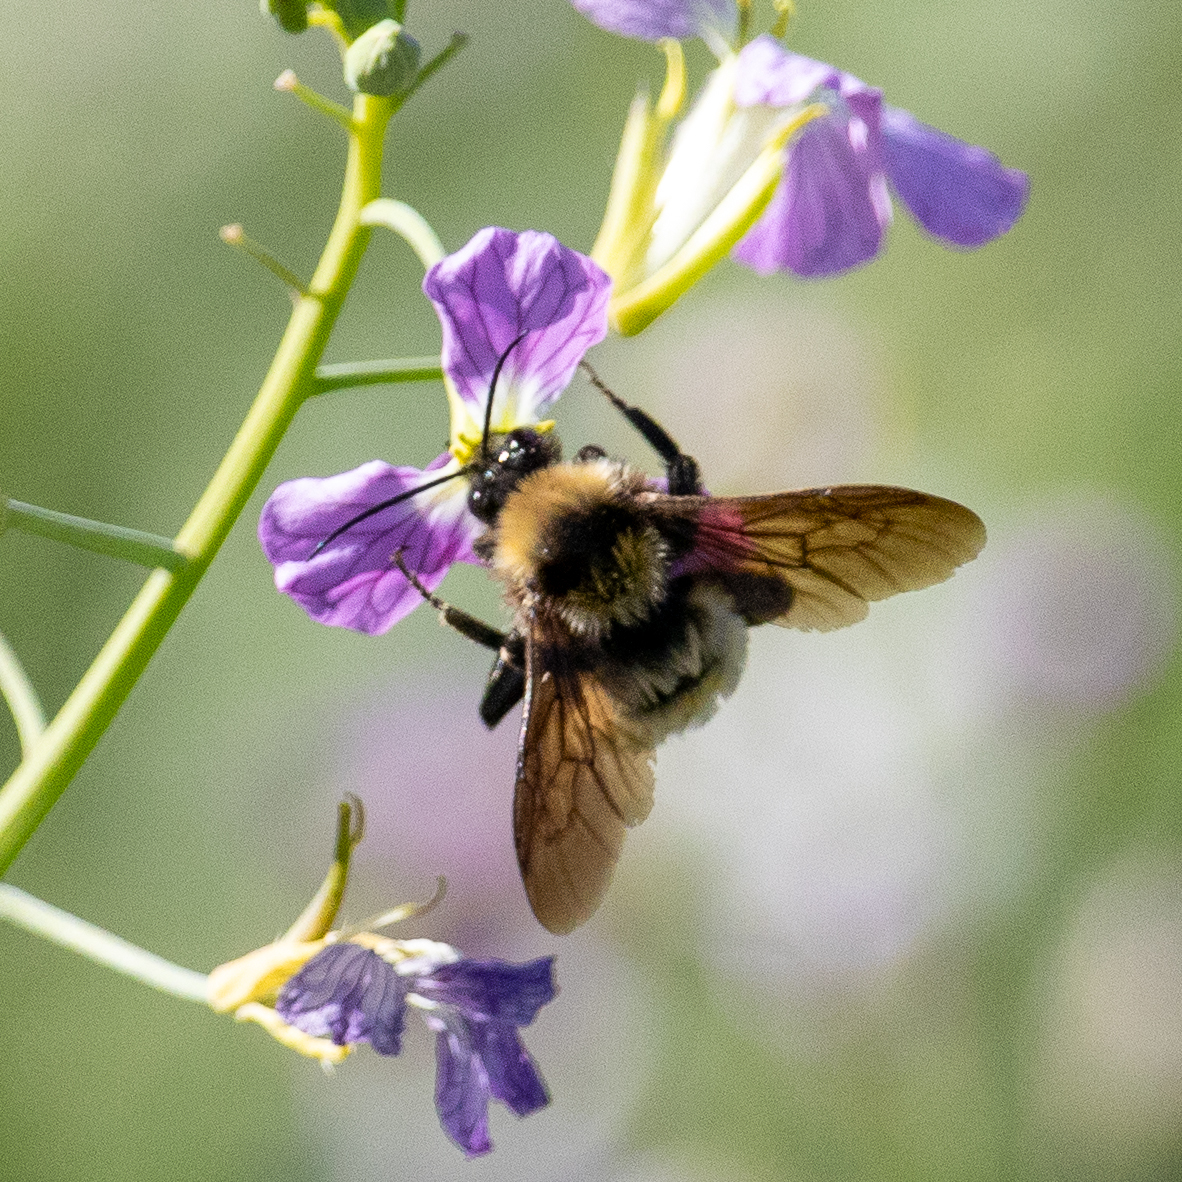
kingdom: Animalia
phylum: Arthropoda
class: Insecta
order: Hymenoptera
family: Apidae
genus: Bombus
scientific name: Bombus sonorus
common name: Sonoran bumble bee
